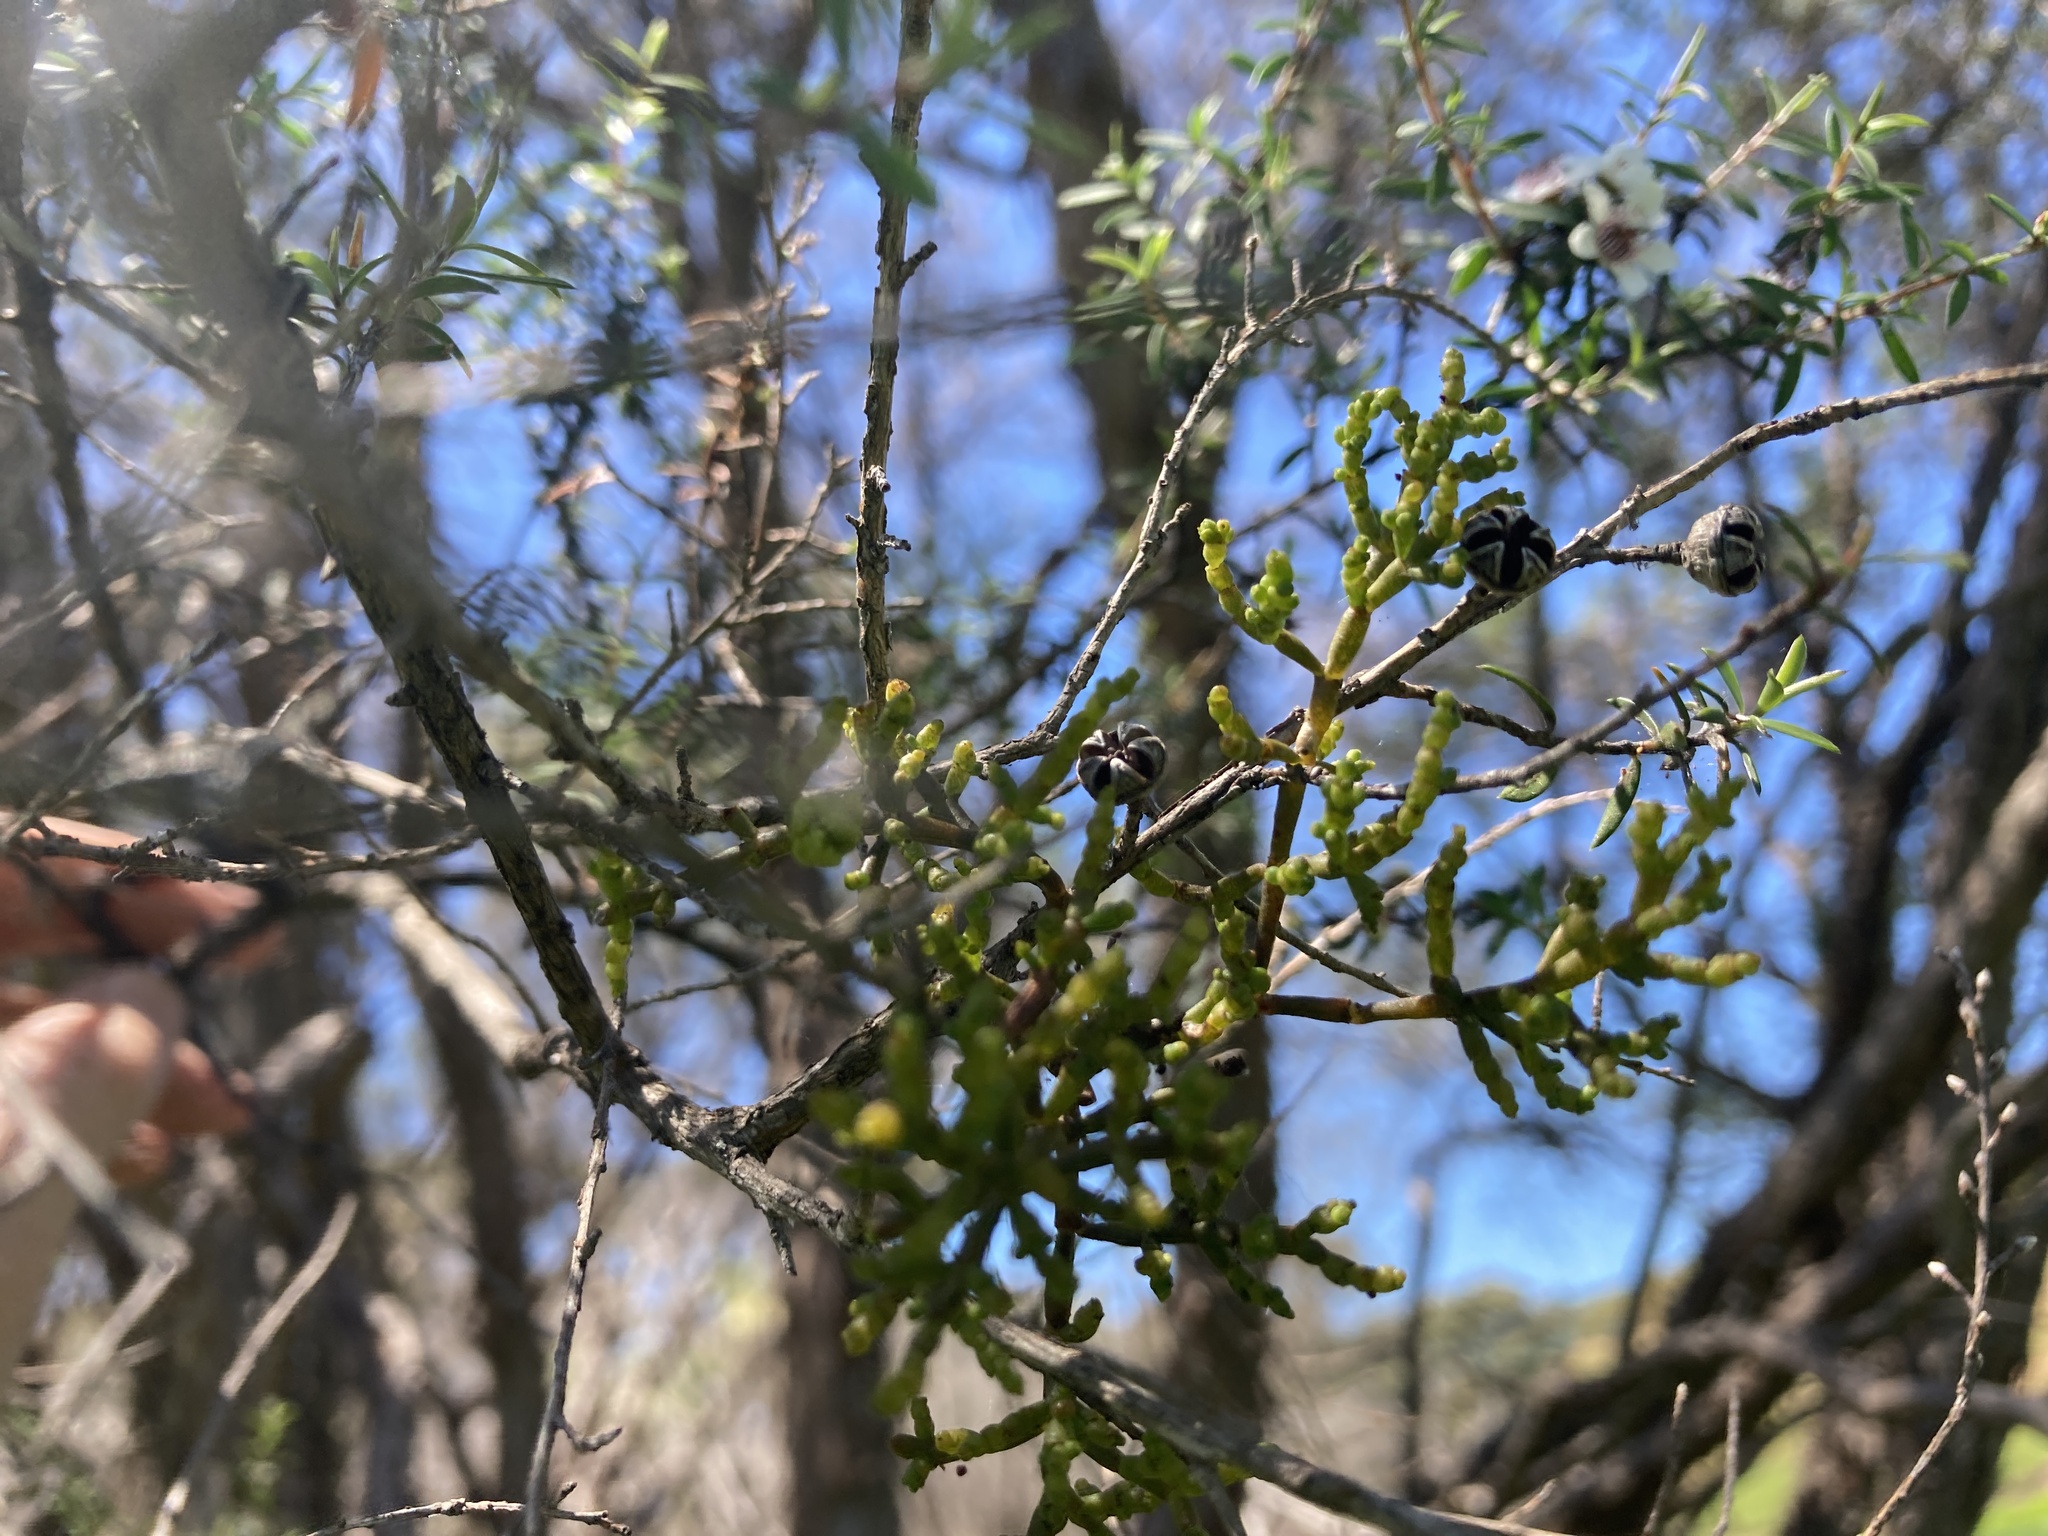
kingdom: Plantae
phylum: Tracheophyta
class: Magnoliopsida
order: Santalales
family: Viscaceae
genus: Korthalsella
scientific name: Korthalsella salicornioides
